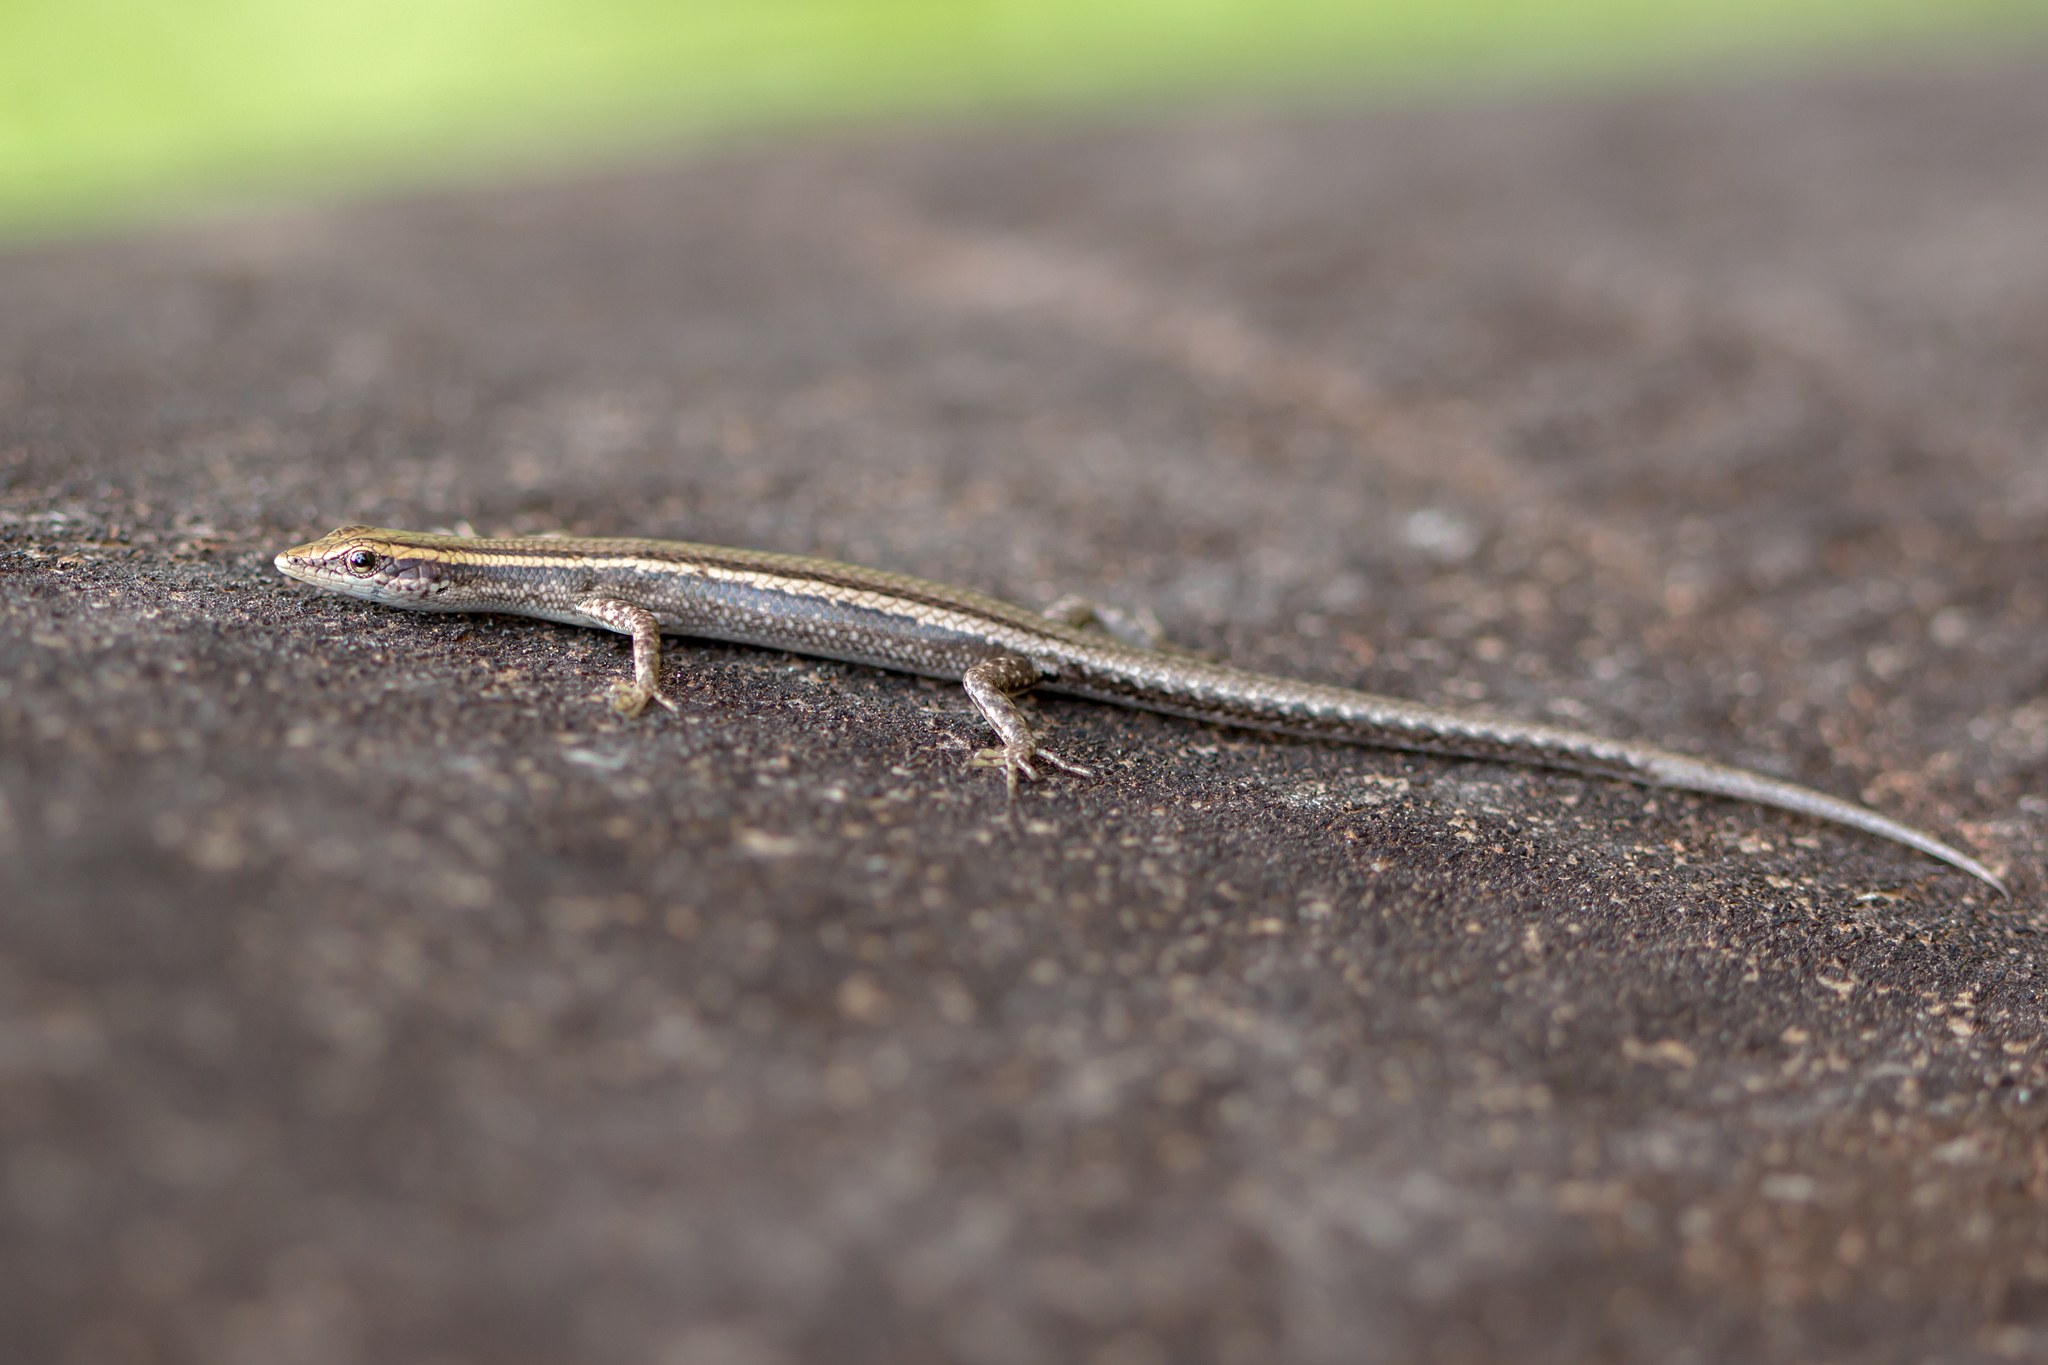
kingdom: Animalia
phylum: Chordata
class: Squamata
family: Scincidae
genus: Cryptoblepharus
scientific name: Cryptoblepharus virgatus
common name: Cream-striped shinning-skink
